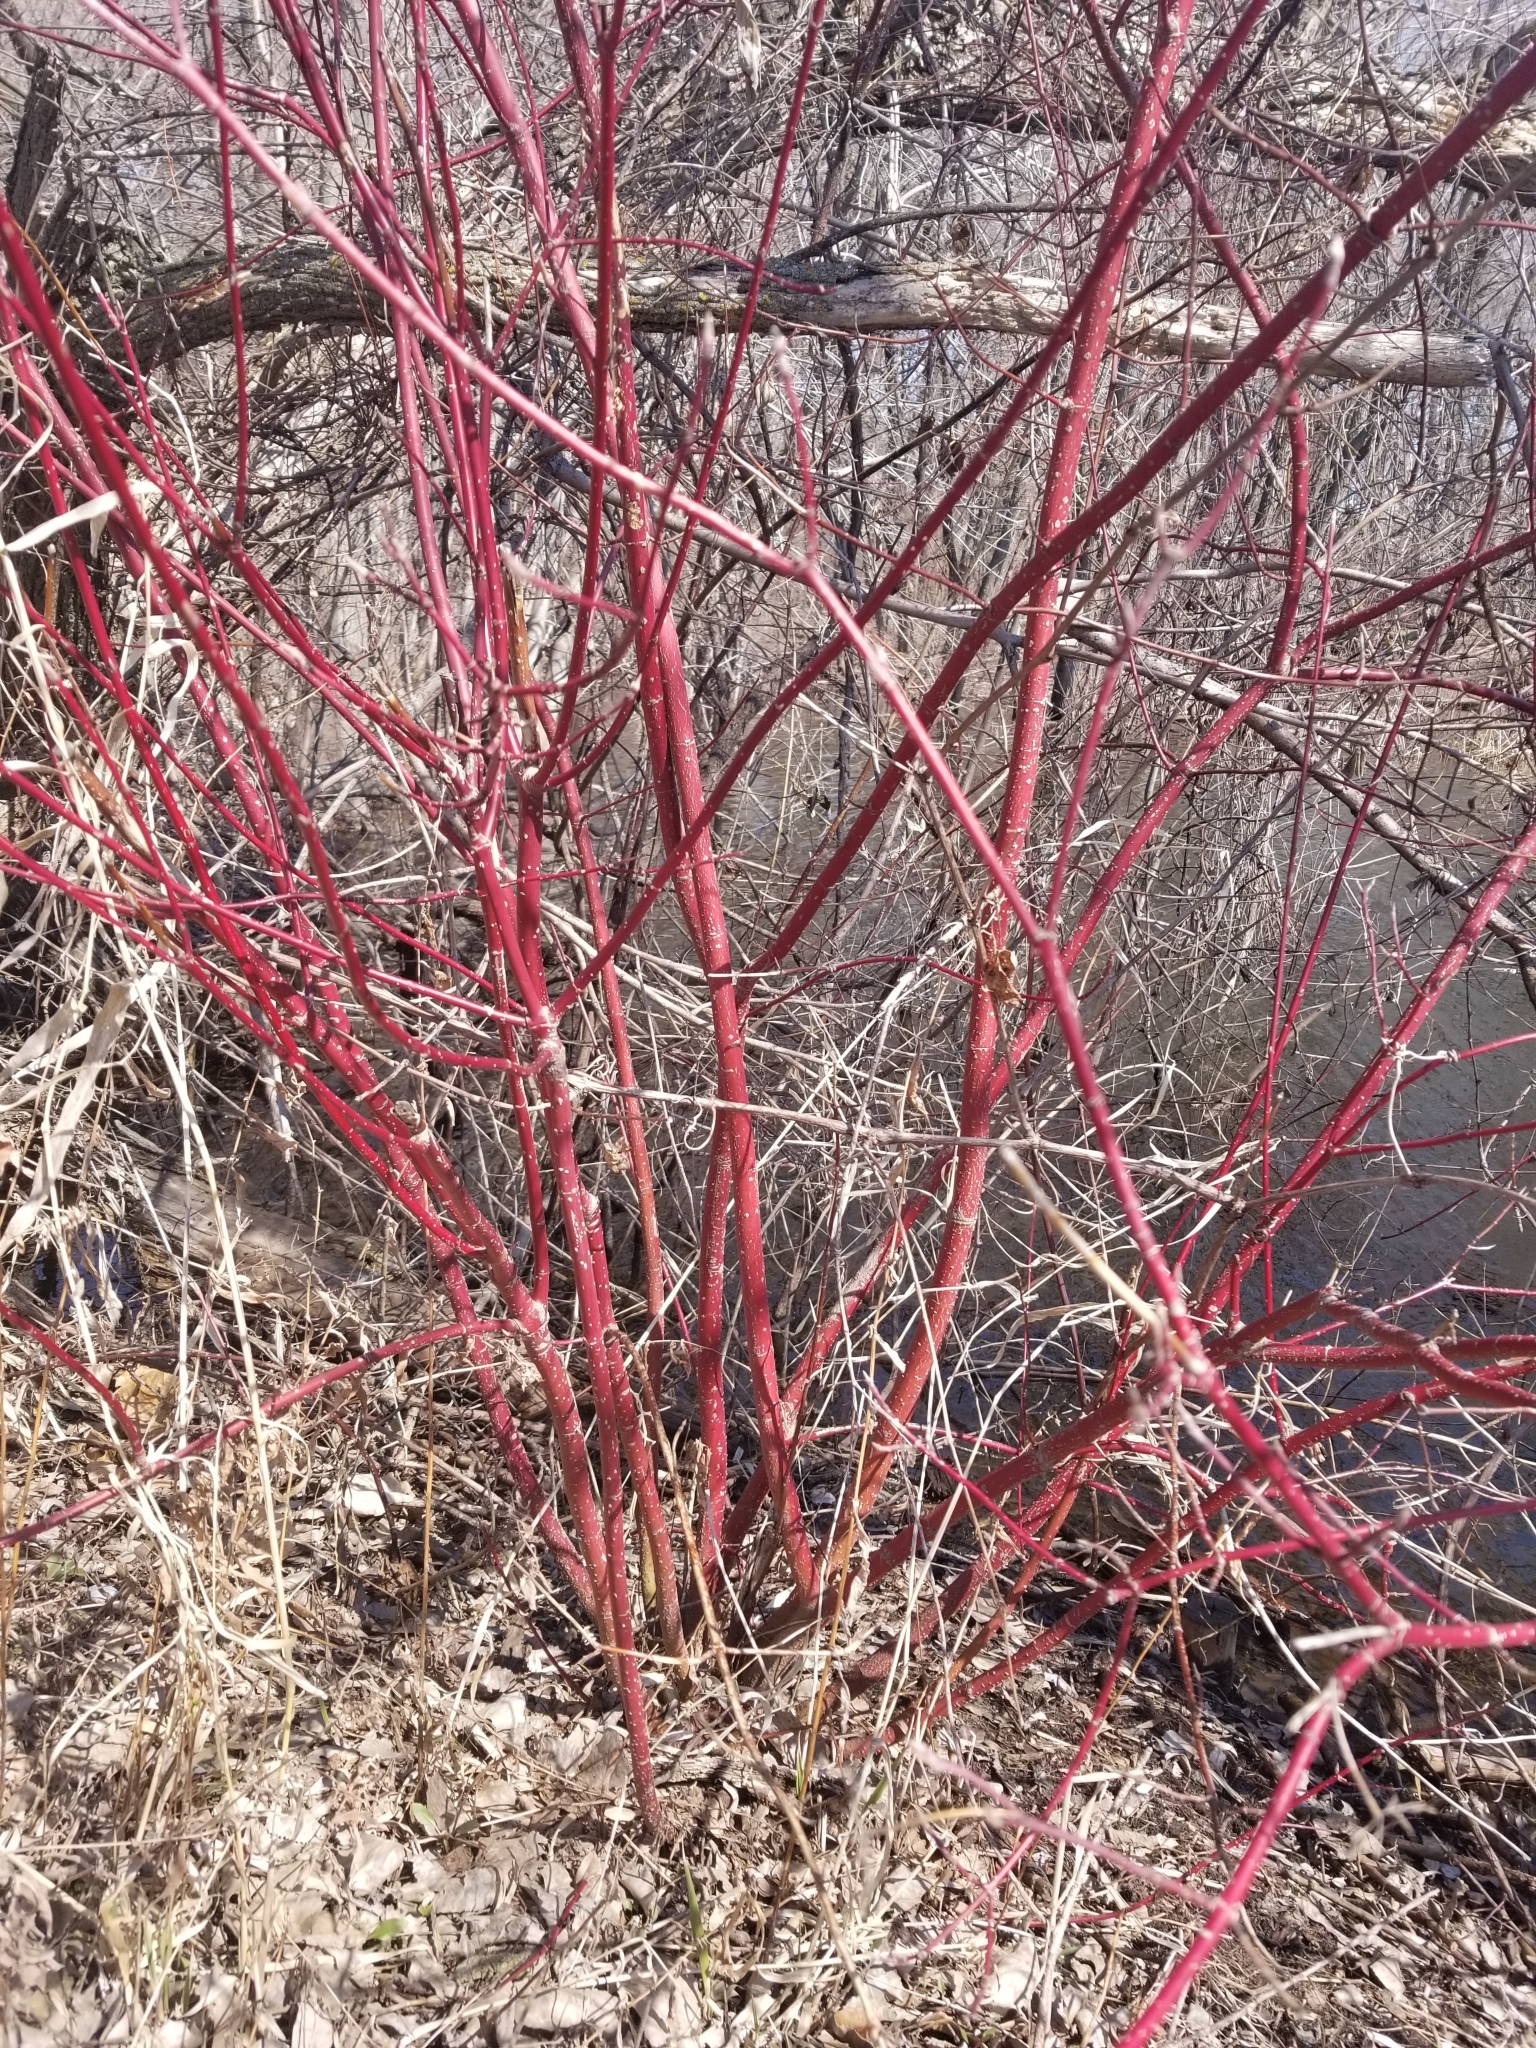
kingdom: Plantae
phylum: Tracheophyta
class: Magnoliopsida
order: Cornales
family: Cornaceae
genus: Cornus
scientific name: Cornus sericea
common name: Red-osier dogwood
